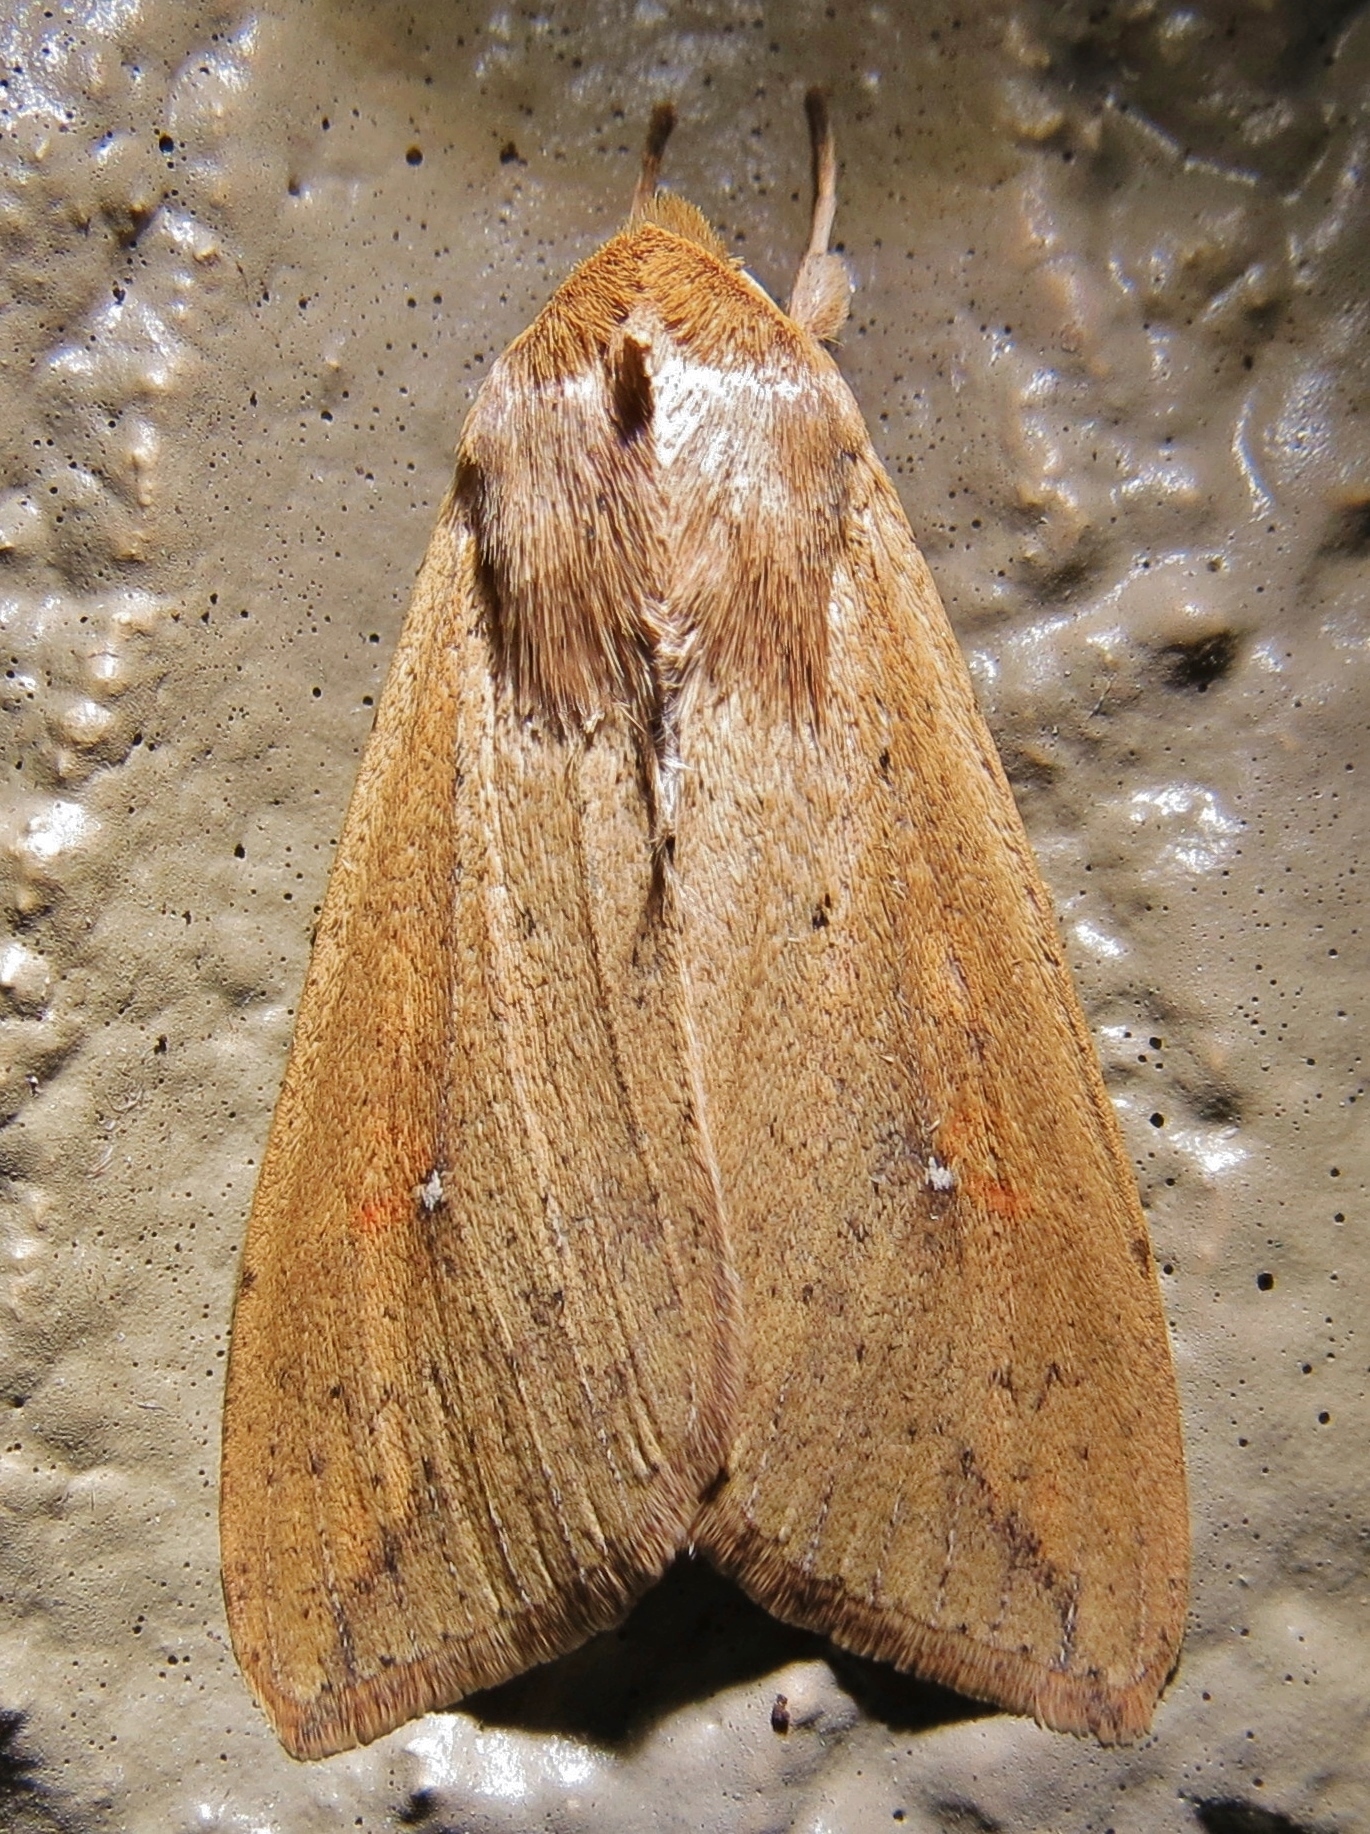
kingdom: Animalia
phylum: Arthropoda
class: Insecta
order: Lepidoptera
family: Noctuidae
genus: Mythimna
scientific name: Mythimna unipuncta
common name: White-speck
